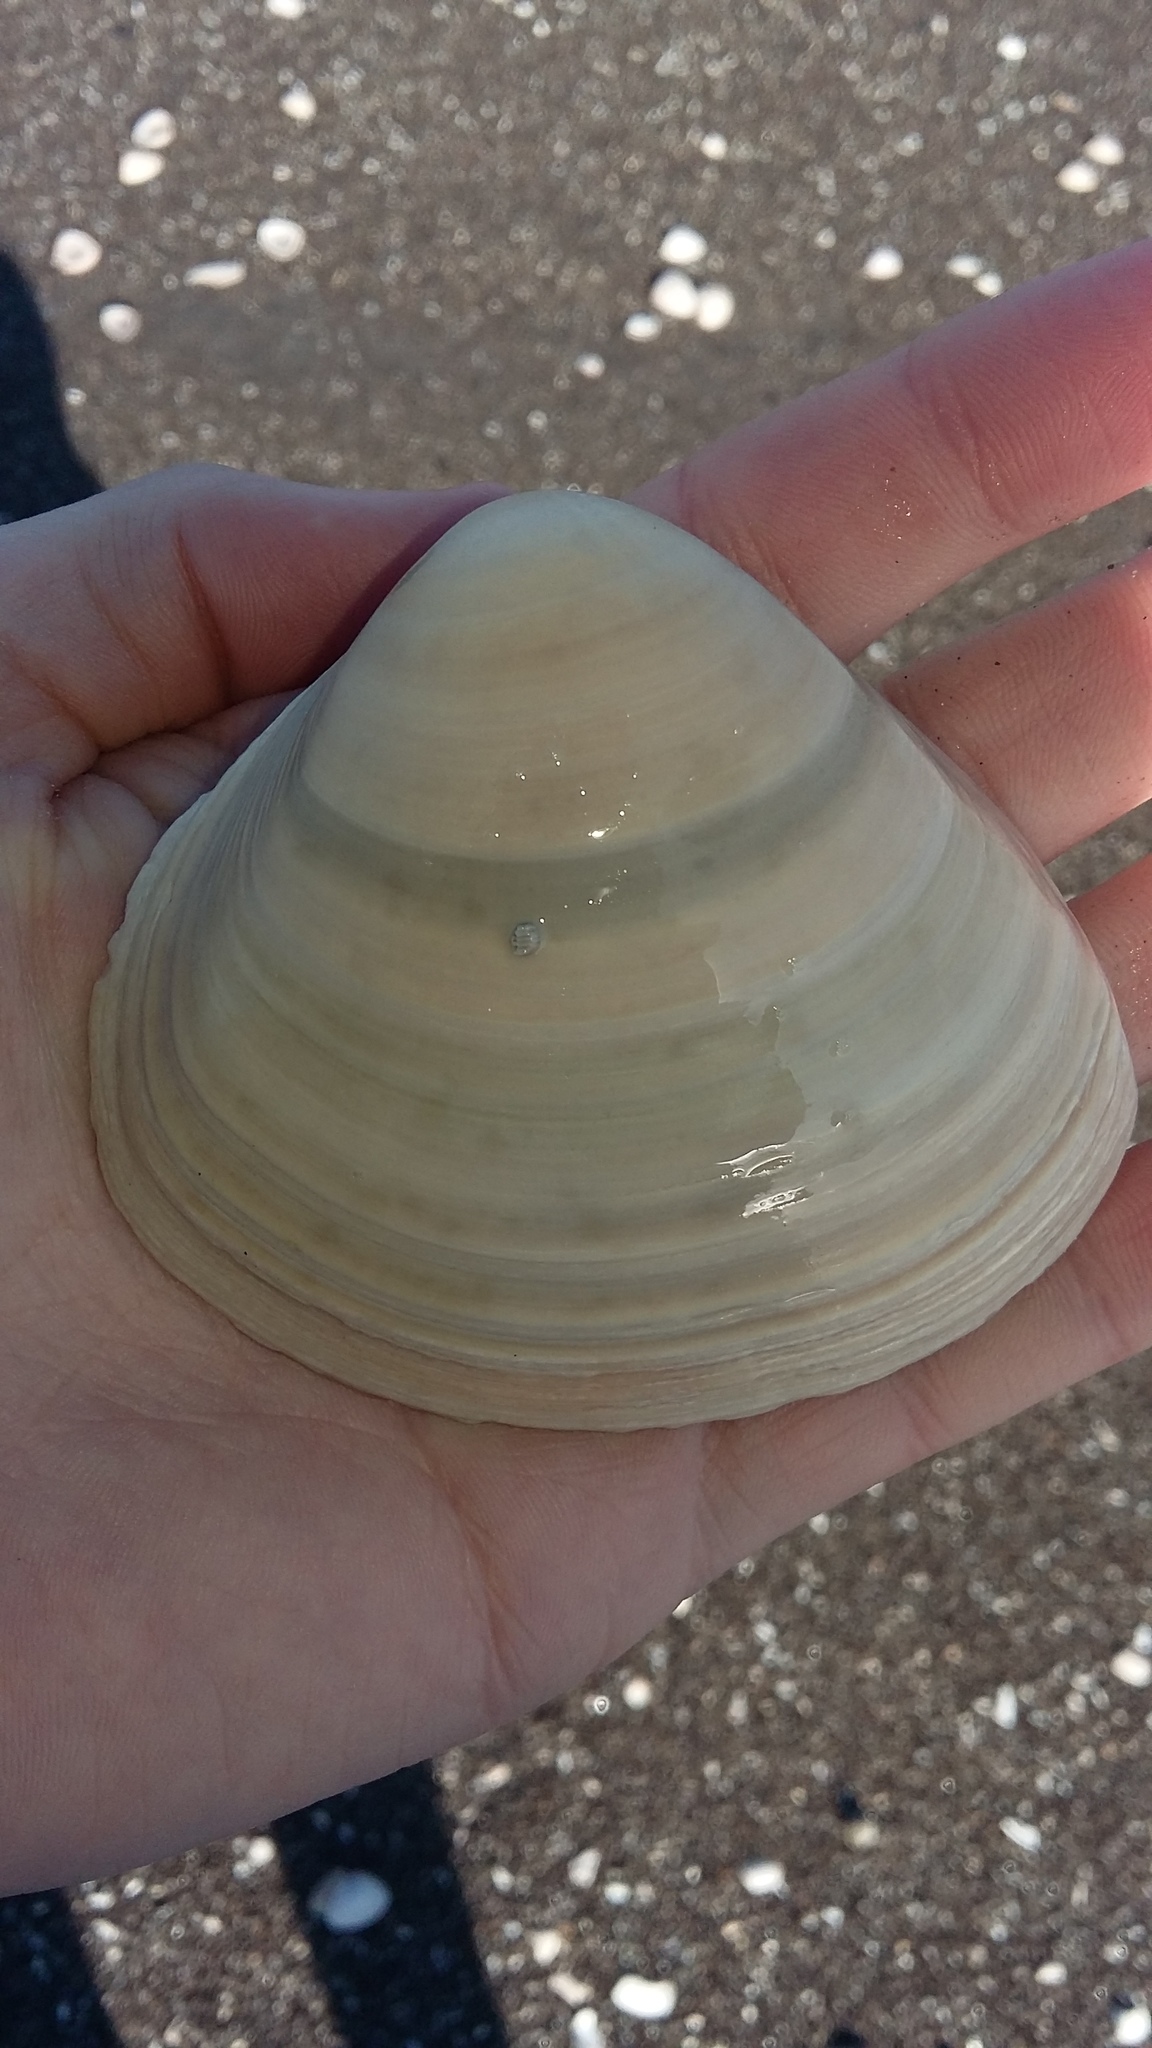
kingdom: Animalia
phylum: Mollusca
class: Bivalvia
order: Venerida
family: Mactridae
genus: Spisula
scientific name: Spisula murchisoni
